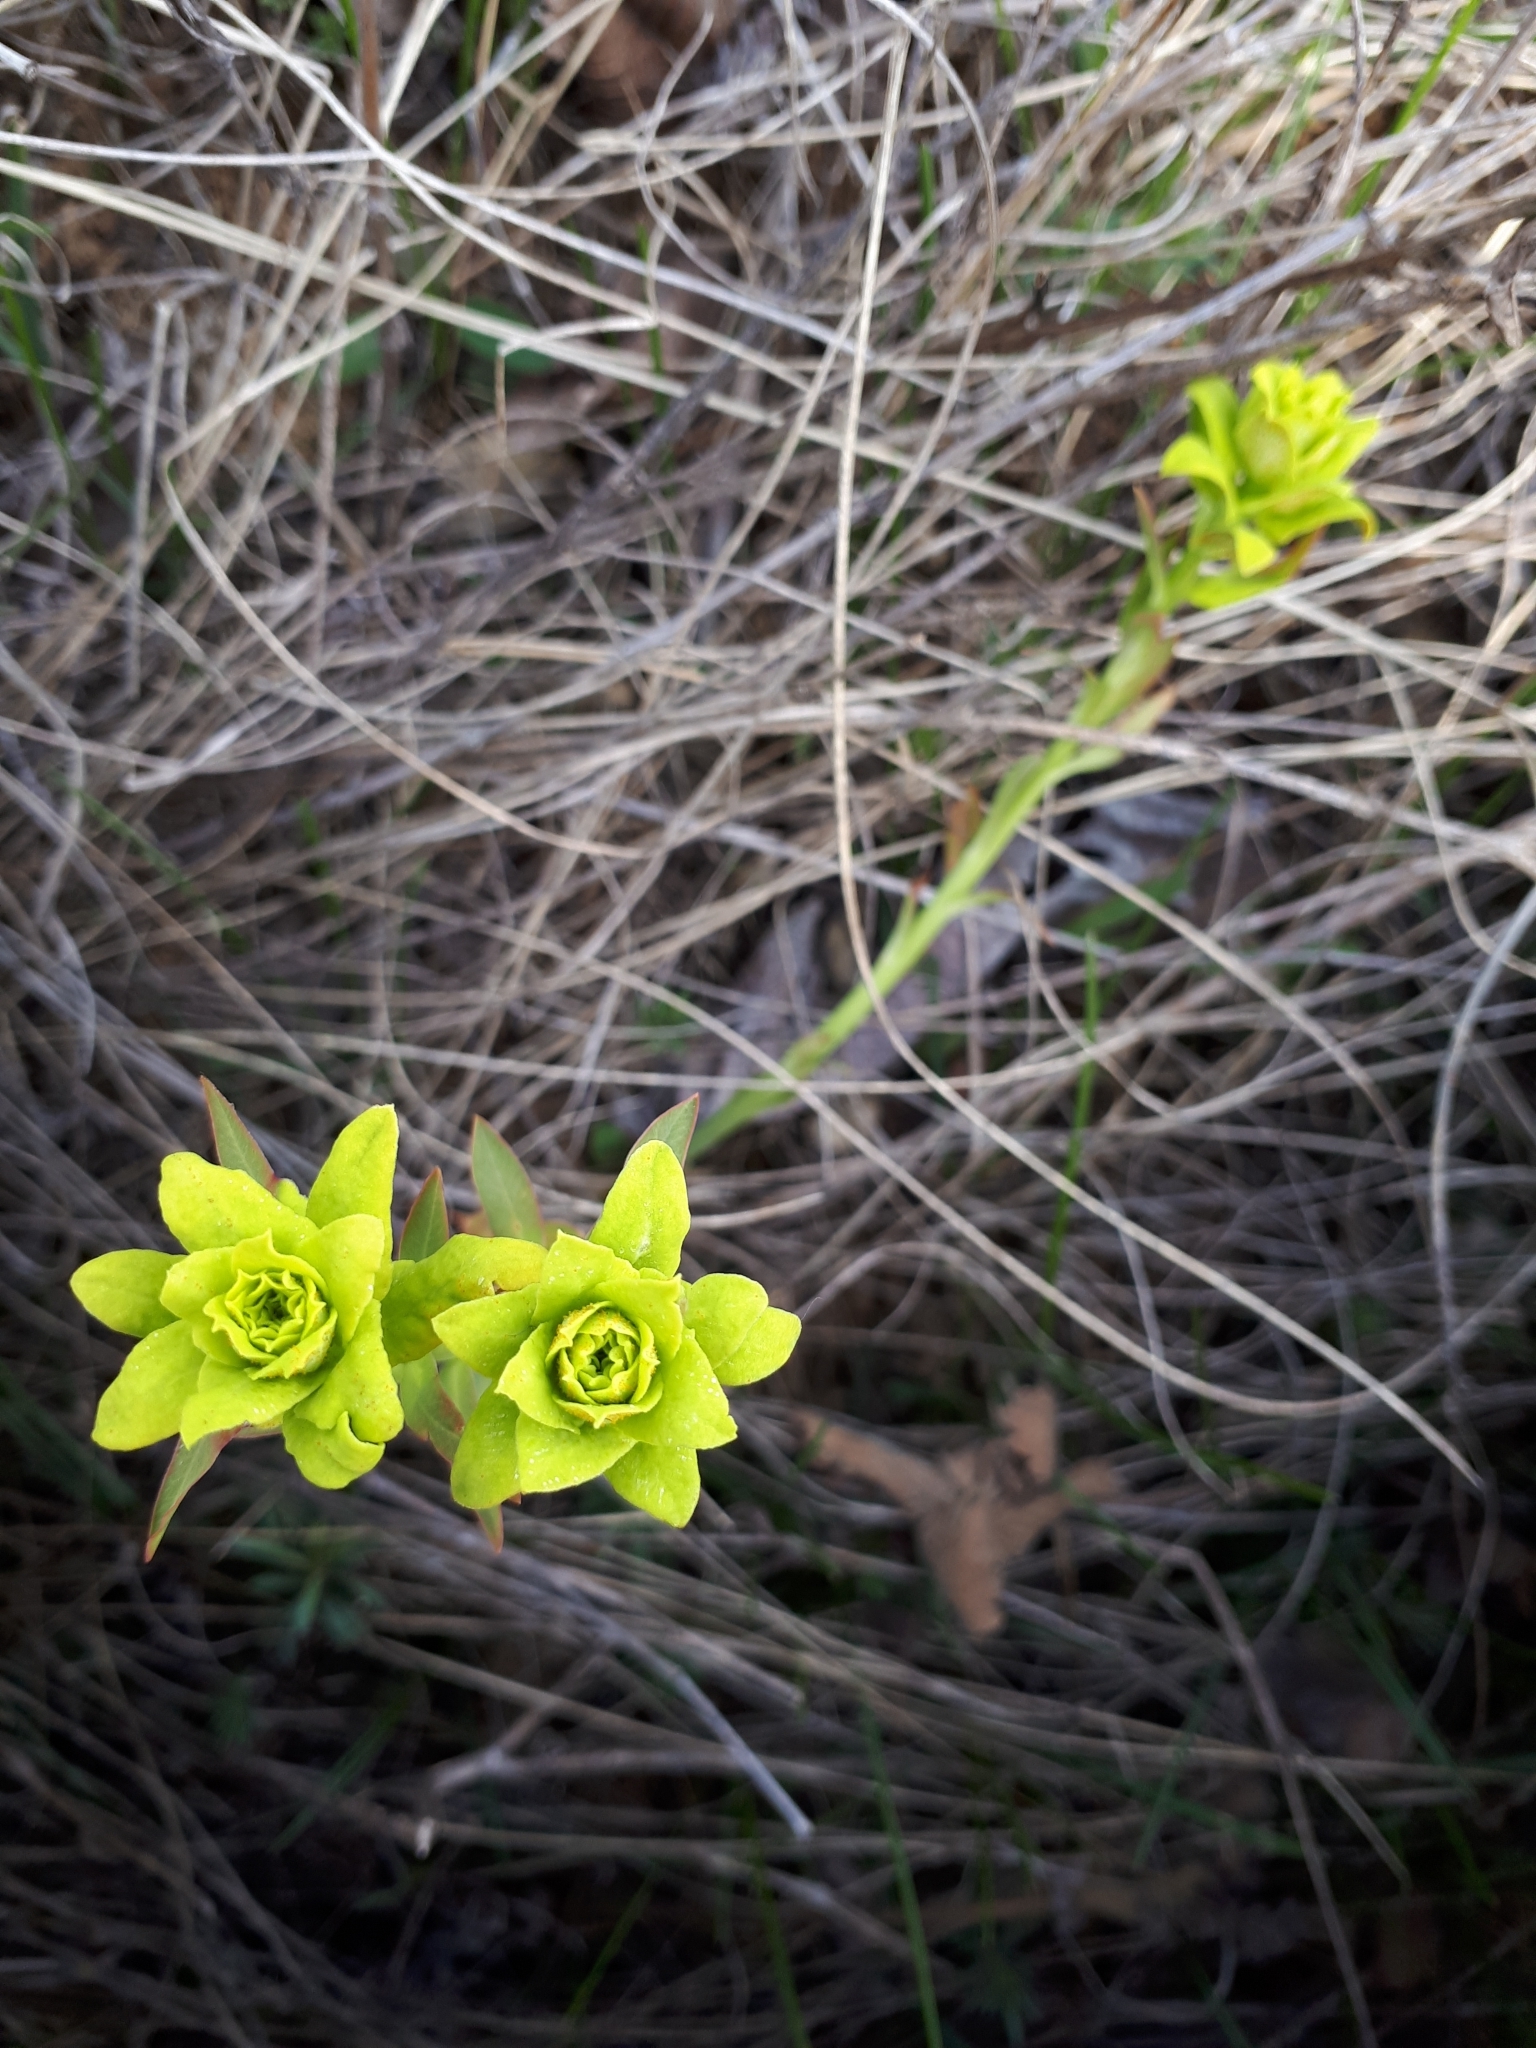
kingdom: Plantae
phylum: Tracheophyta
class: Magnoliopsida
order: Malpighiales
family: Euphorbiaceae
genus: Euphorbia
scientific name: Euphorbia
